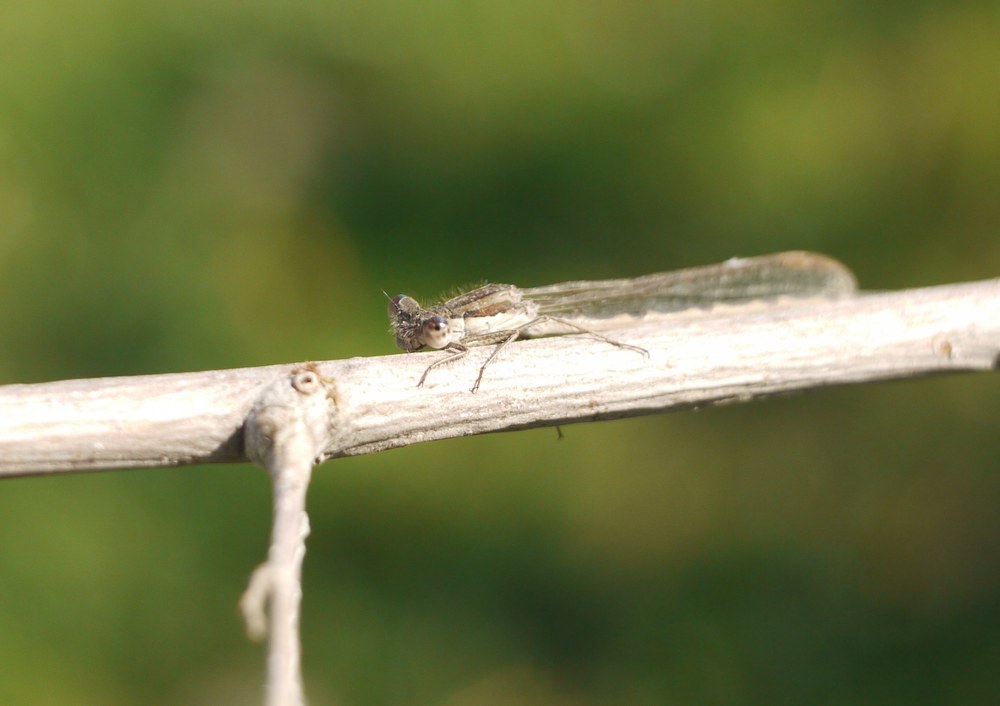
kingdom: Animalia
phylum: Arthropoda
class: Insecta
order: Odonata
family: Lestidae
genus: Sympecma
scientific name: Sympecma fusca
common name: Common winter damsel
